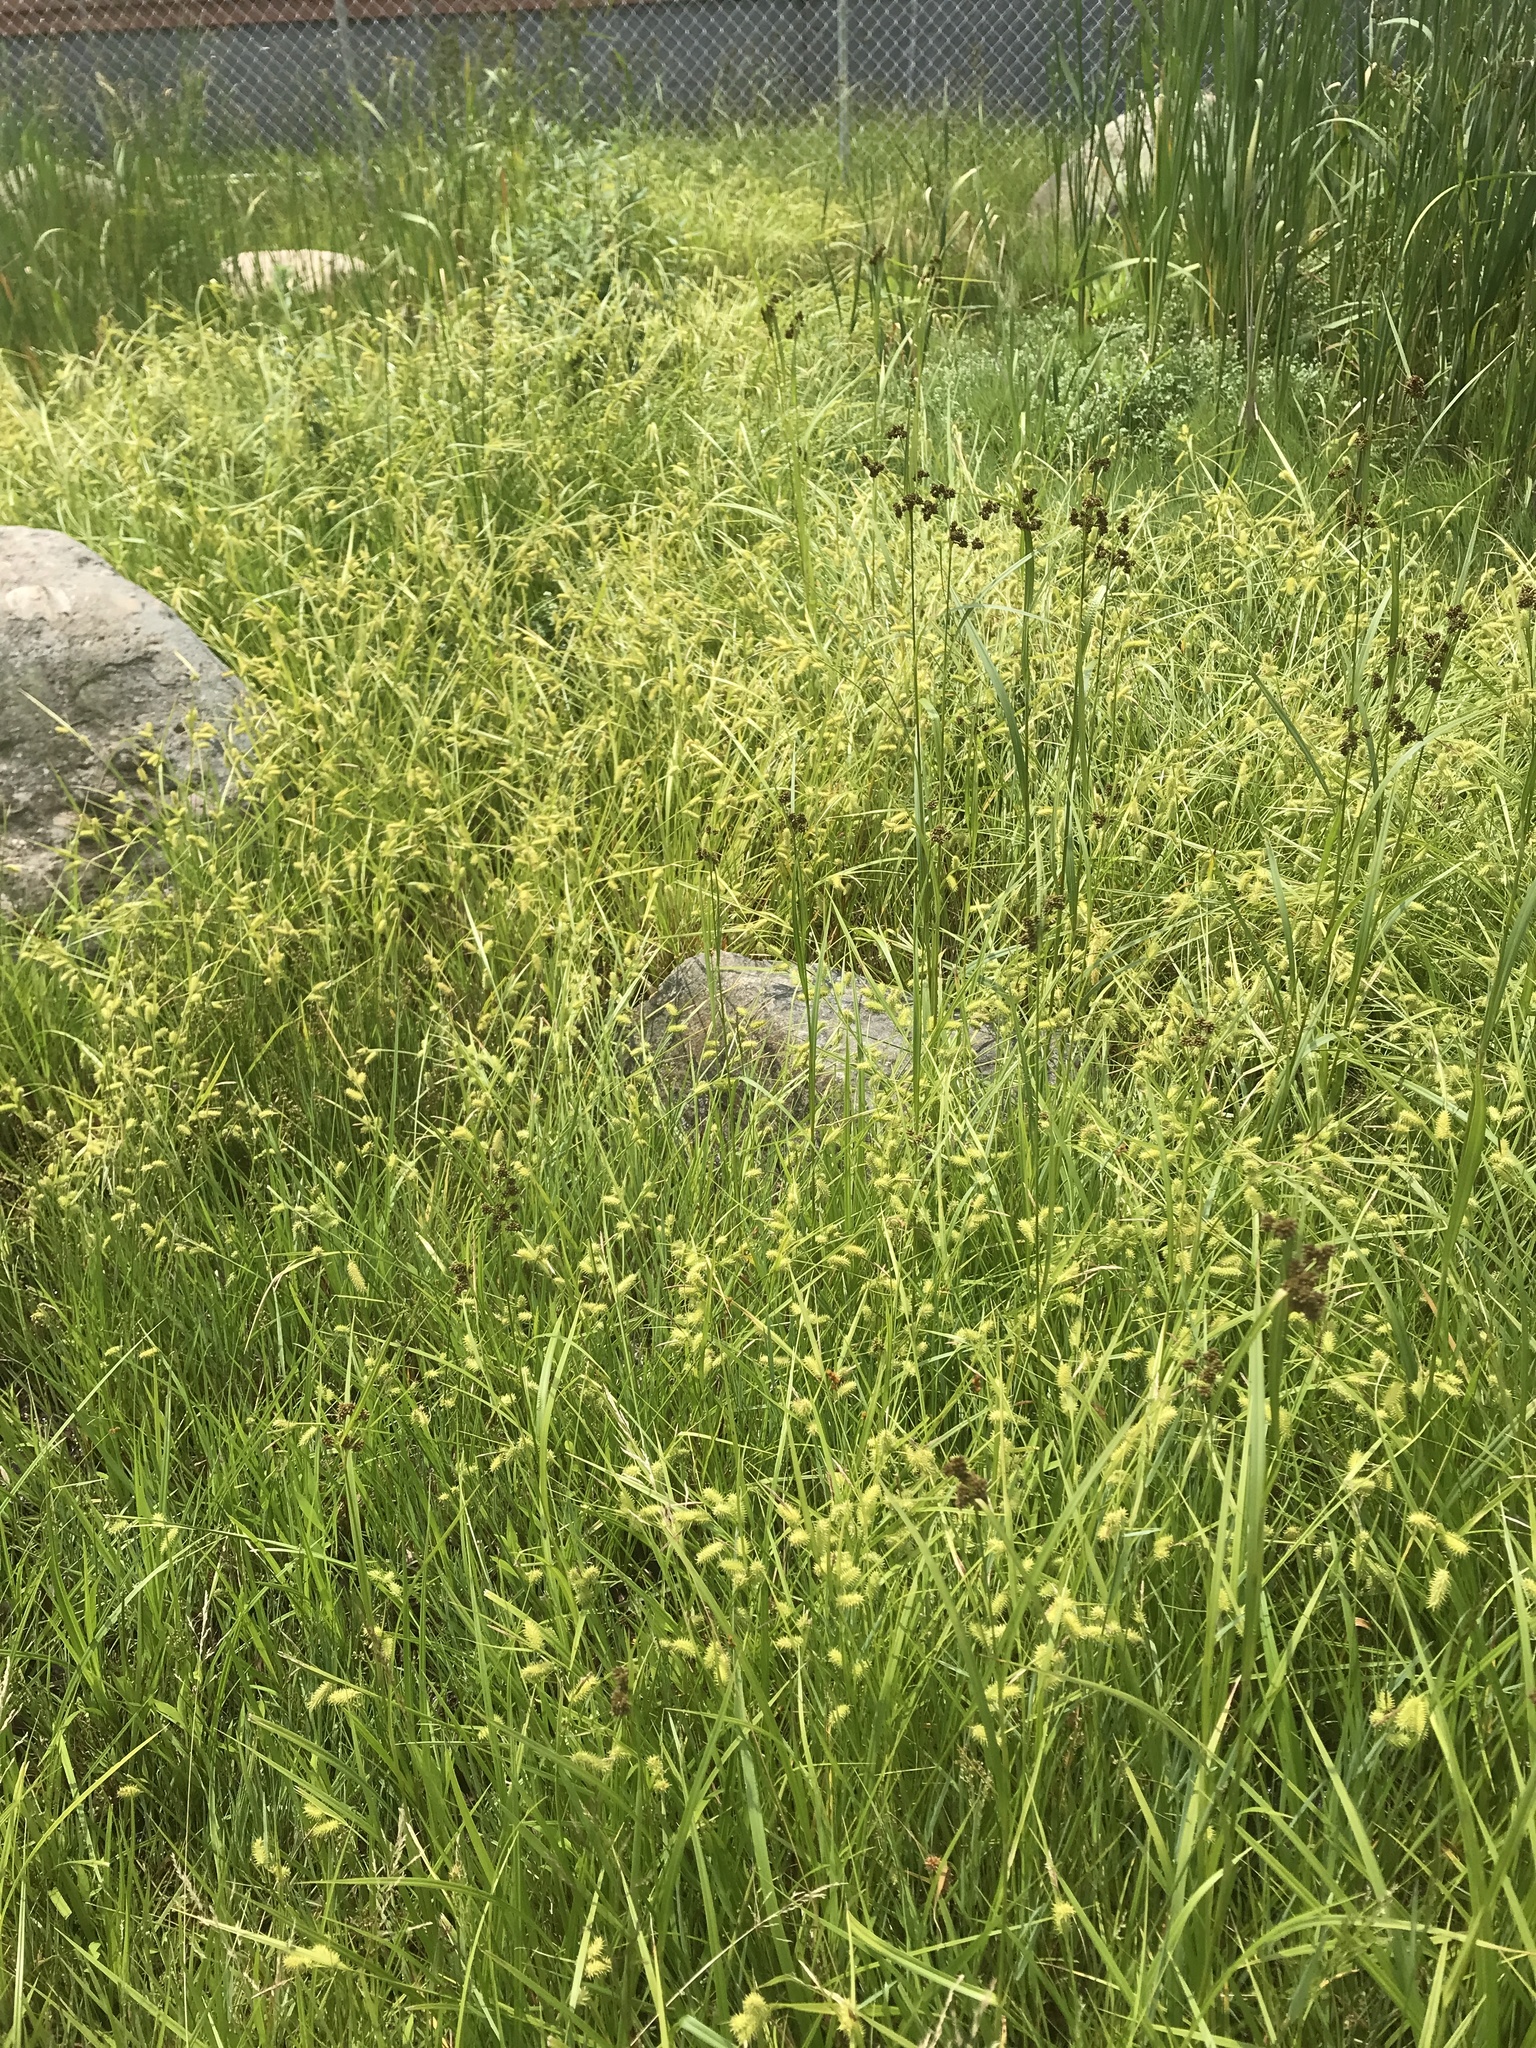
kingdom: Plantae
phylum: Tracheophyta
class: Liliopsida
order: Poales
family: Cyperaceae
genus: Carex
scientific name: Carex hystericina
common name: Bottlebrush sedge
